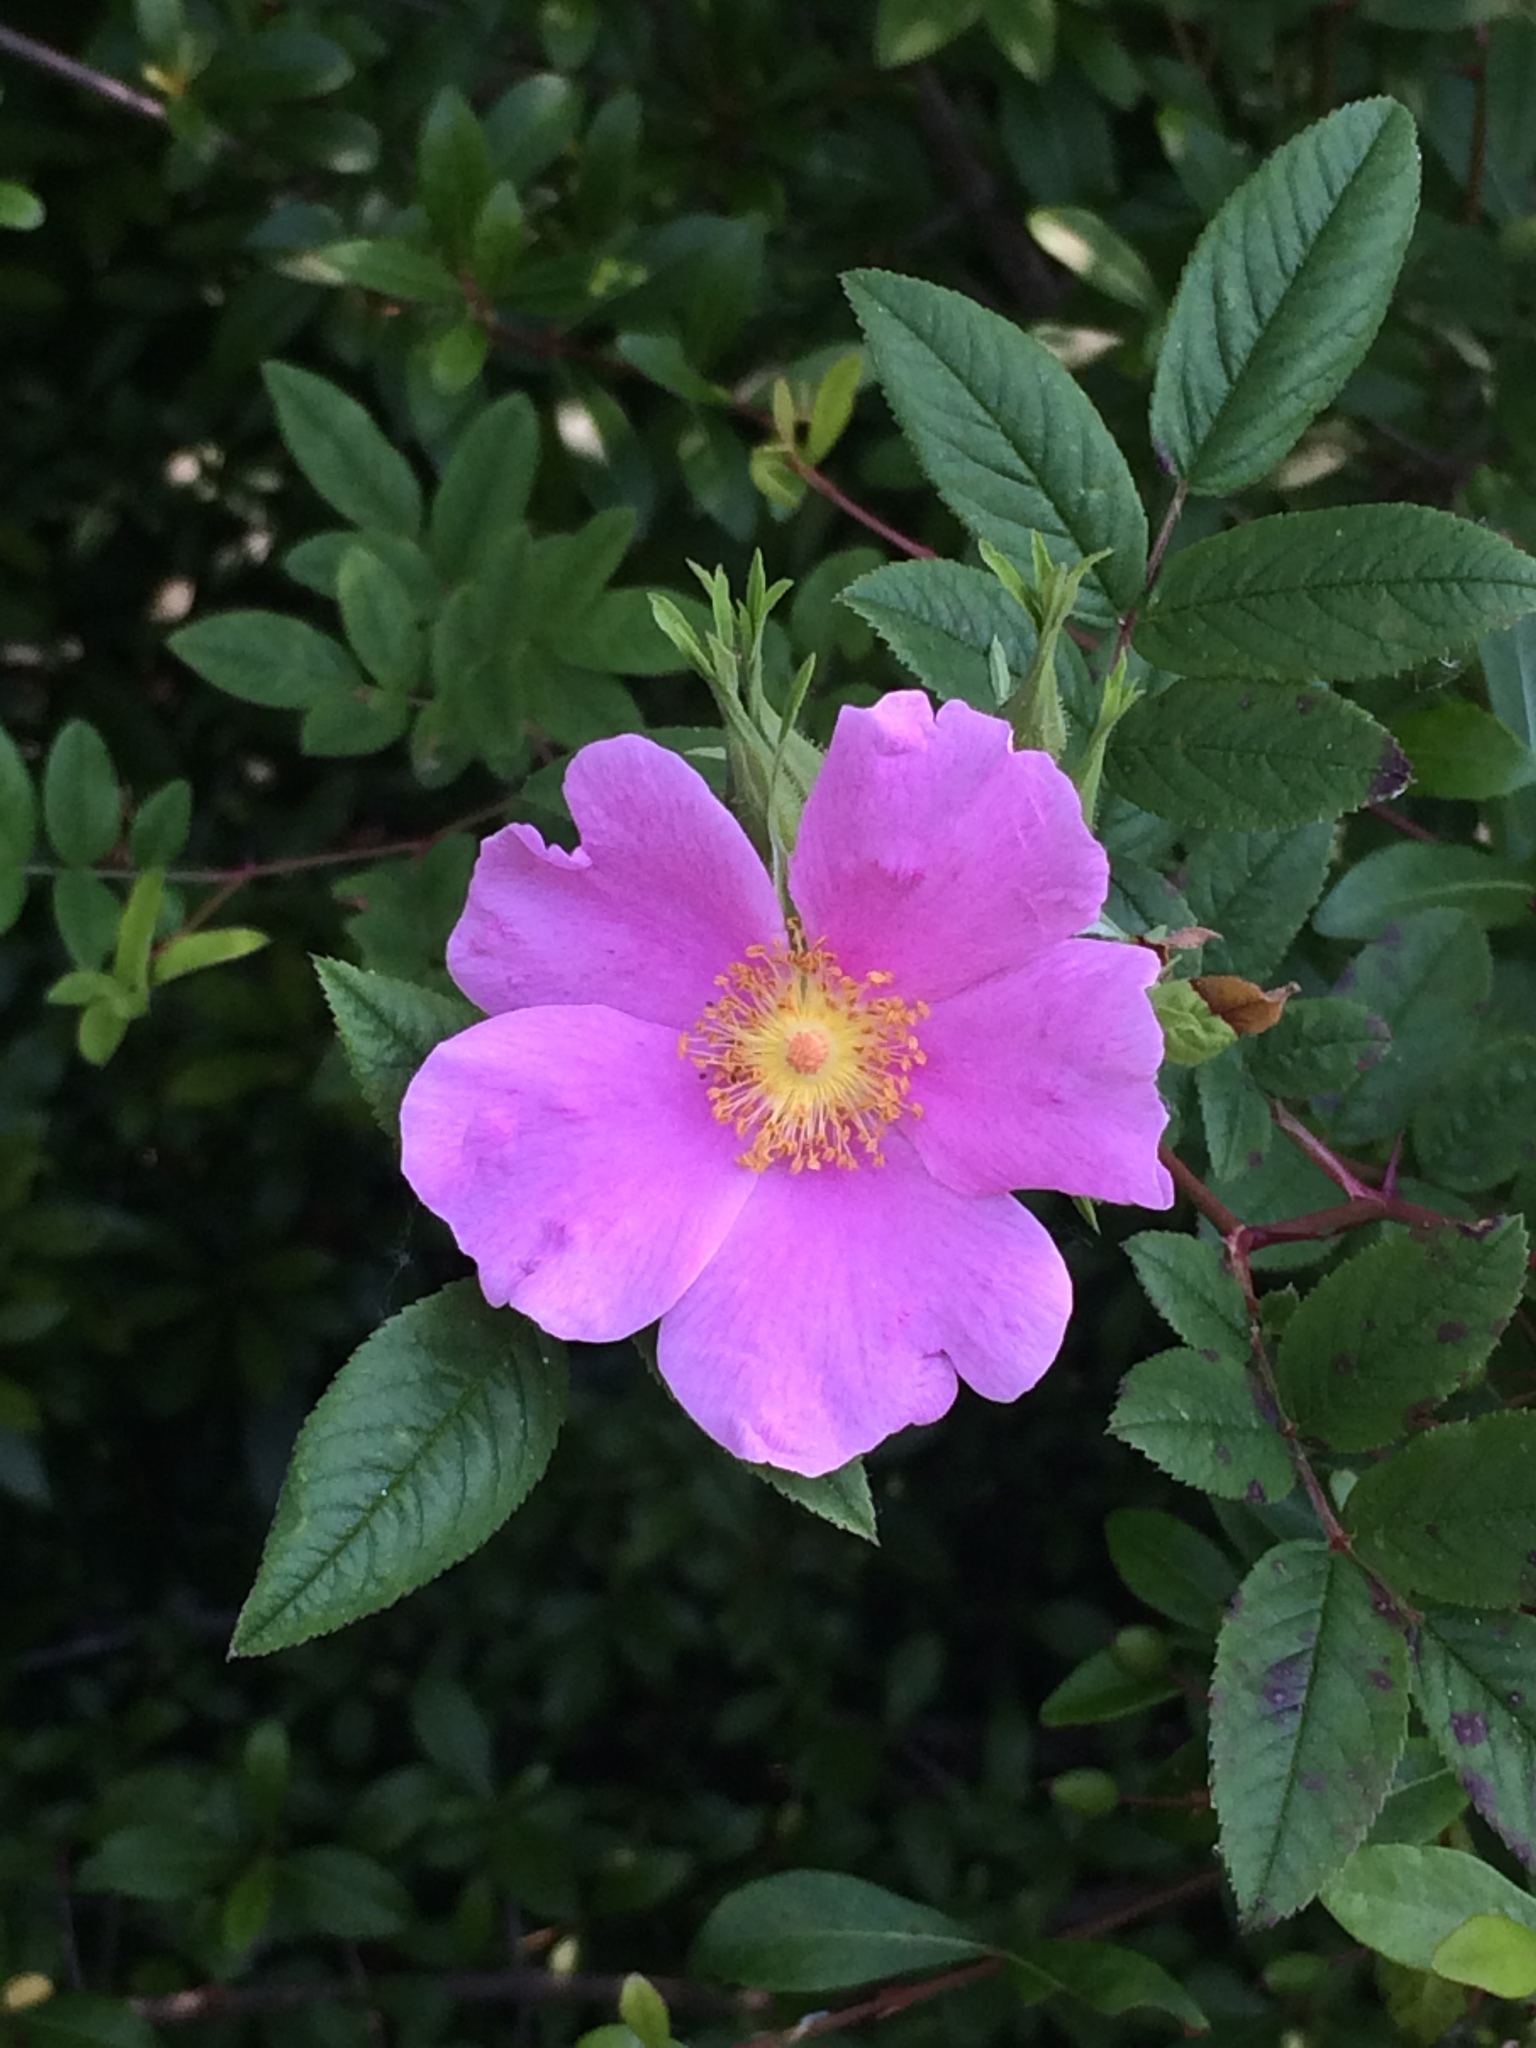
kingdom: Plantae
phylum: Tracheophyta
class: Magnoliopsida
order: Rosales
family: Rosaceae
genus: Rosa
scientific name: Rosa palustris
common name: Swamp rose
